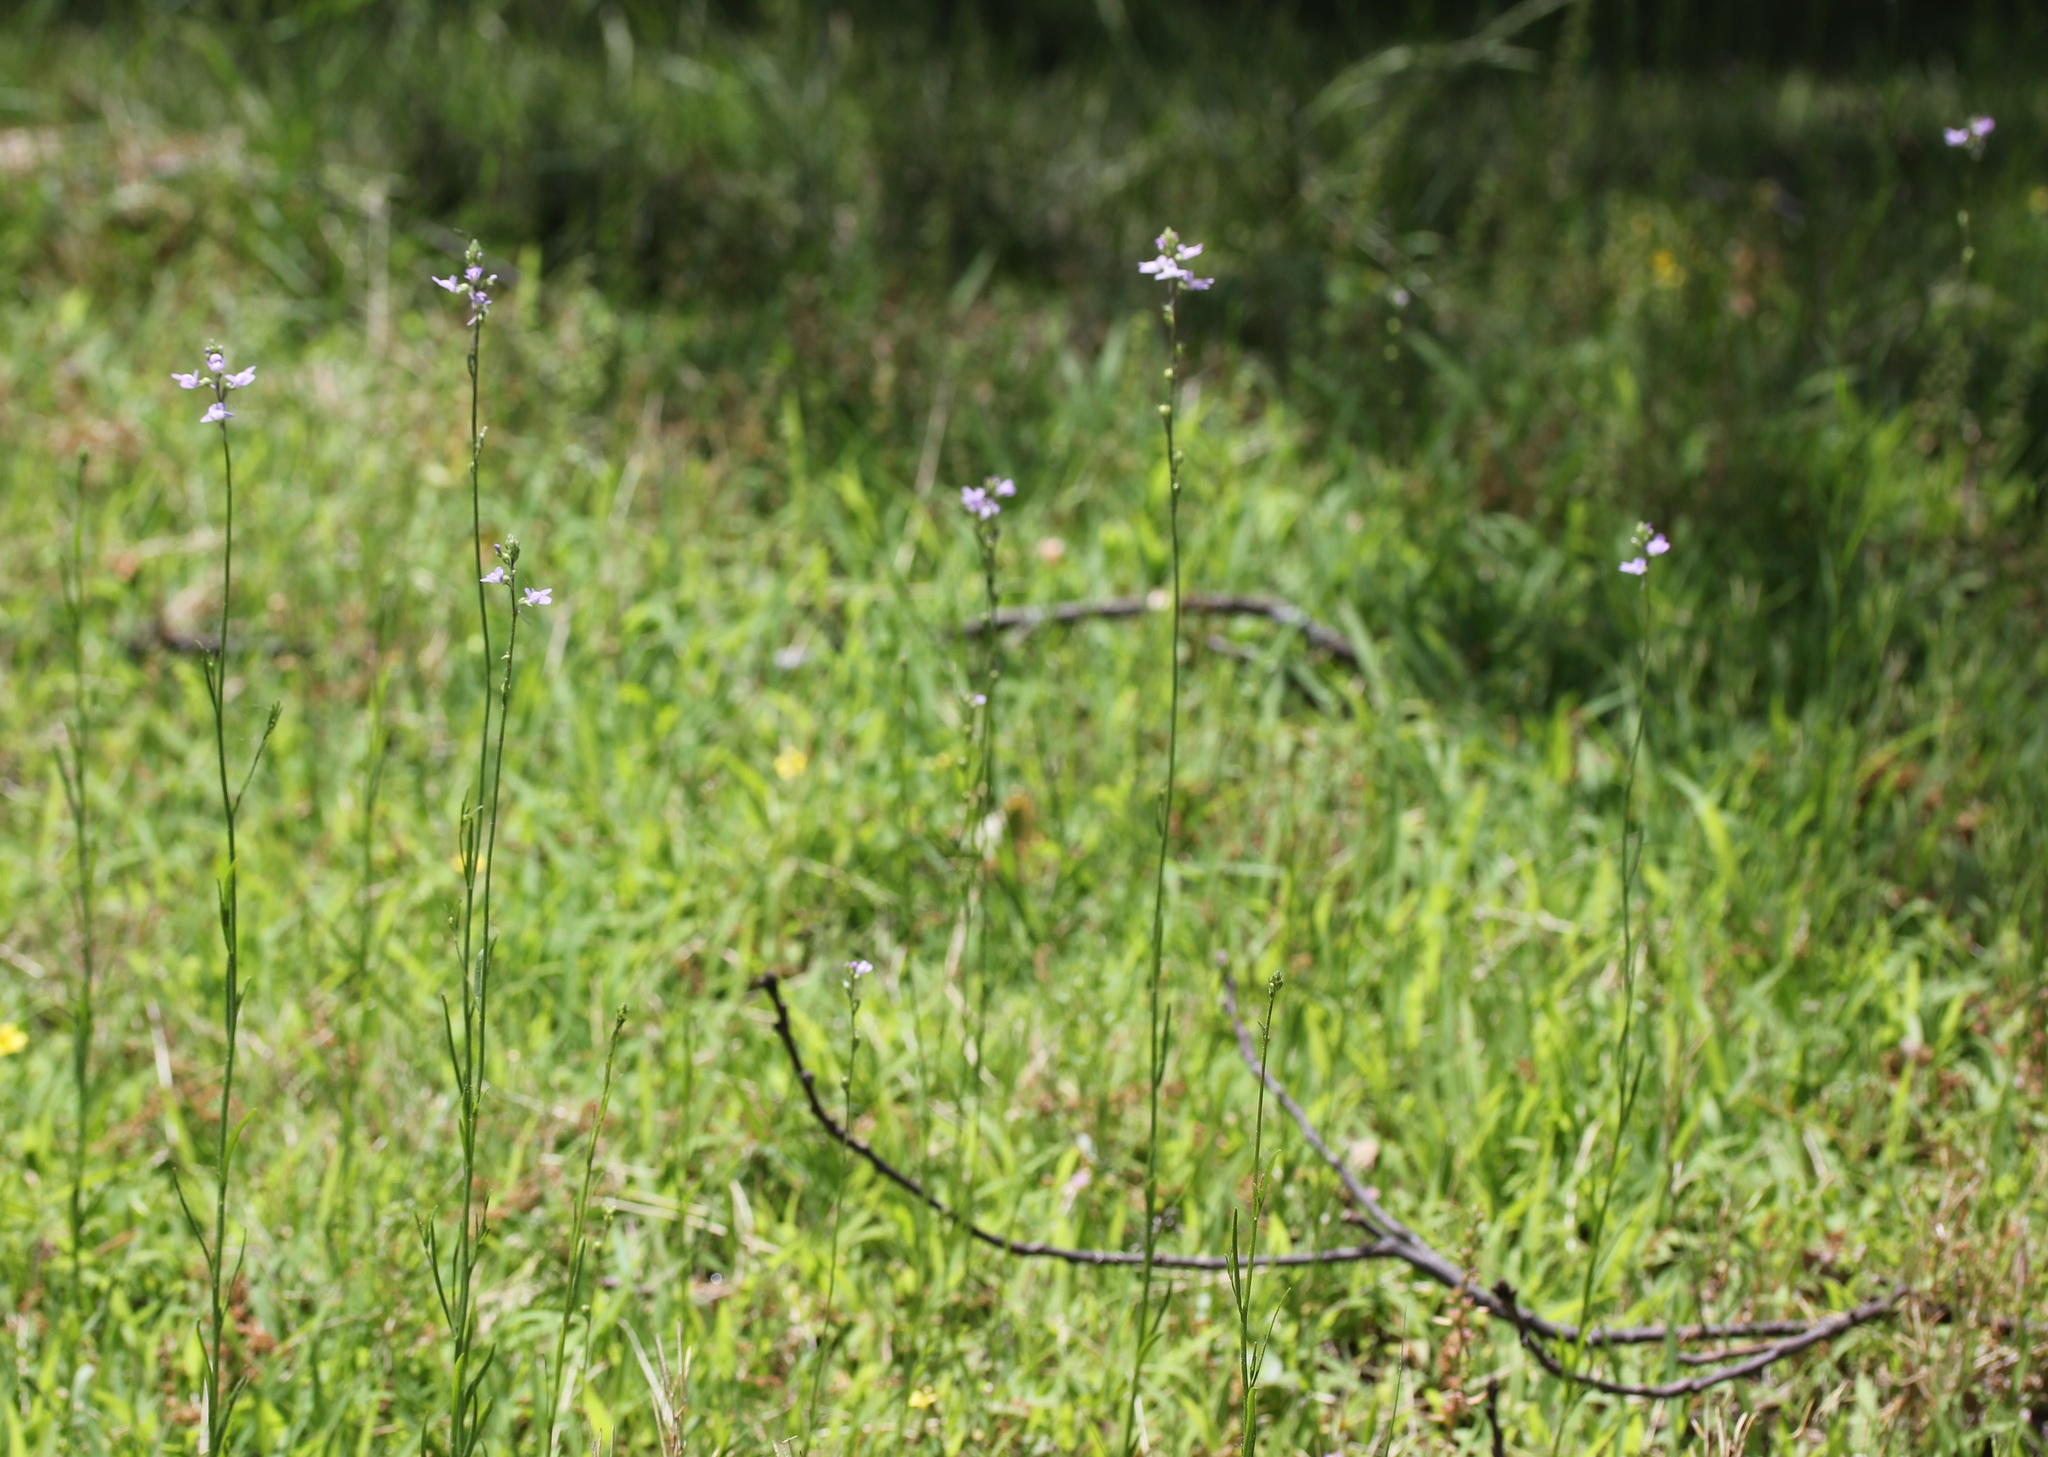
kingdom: Plantae
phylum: Tracheophyta
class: Magnoliopsida
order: Lamiales
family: Plantaginaceae
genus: Nuttallanthus
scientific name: Nuttallanthus canadensis
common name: Blue toadflax
